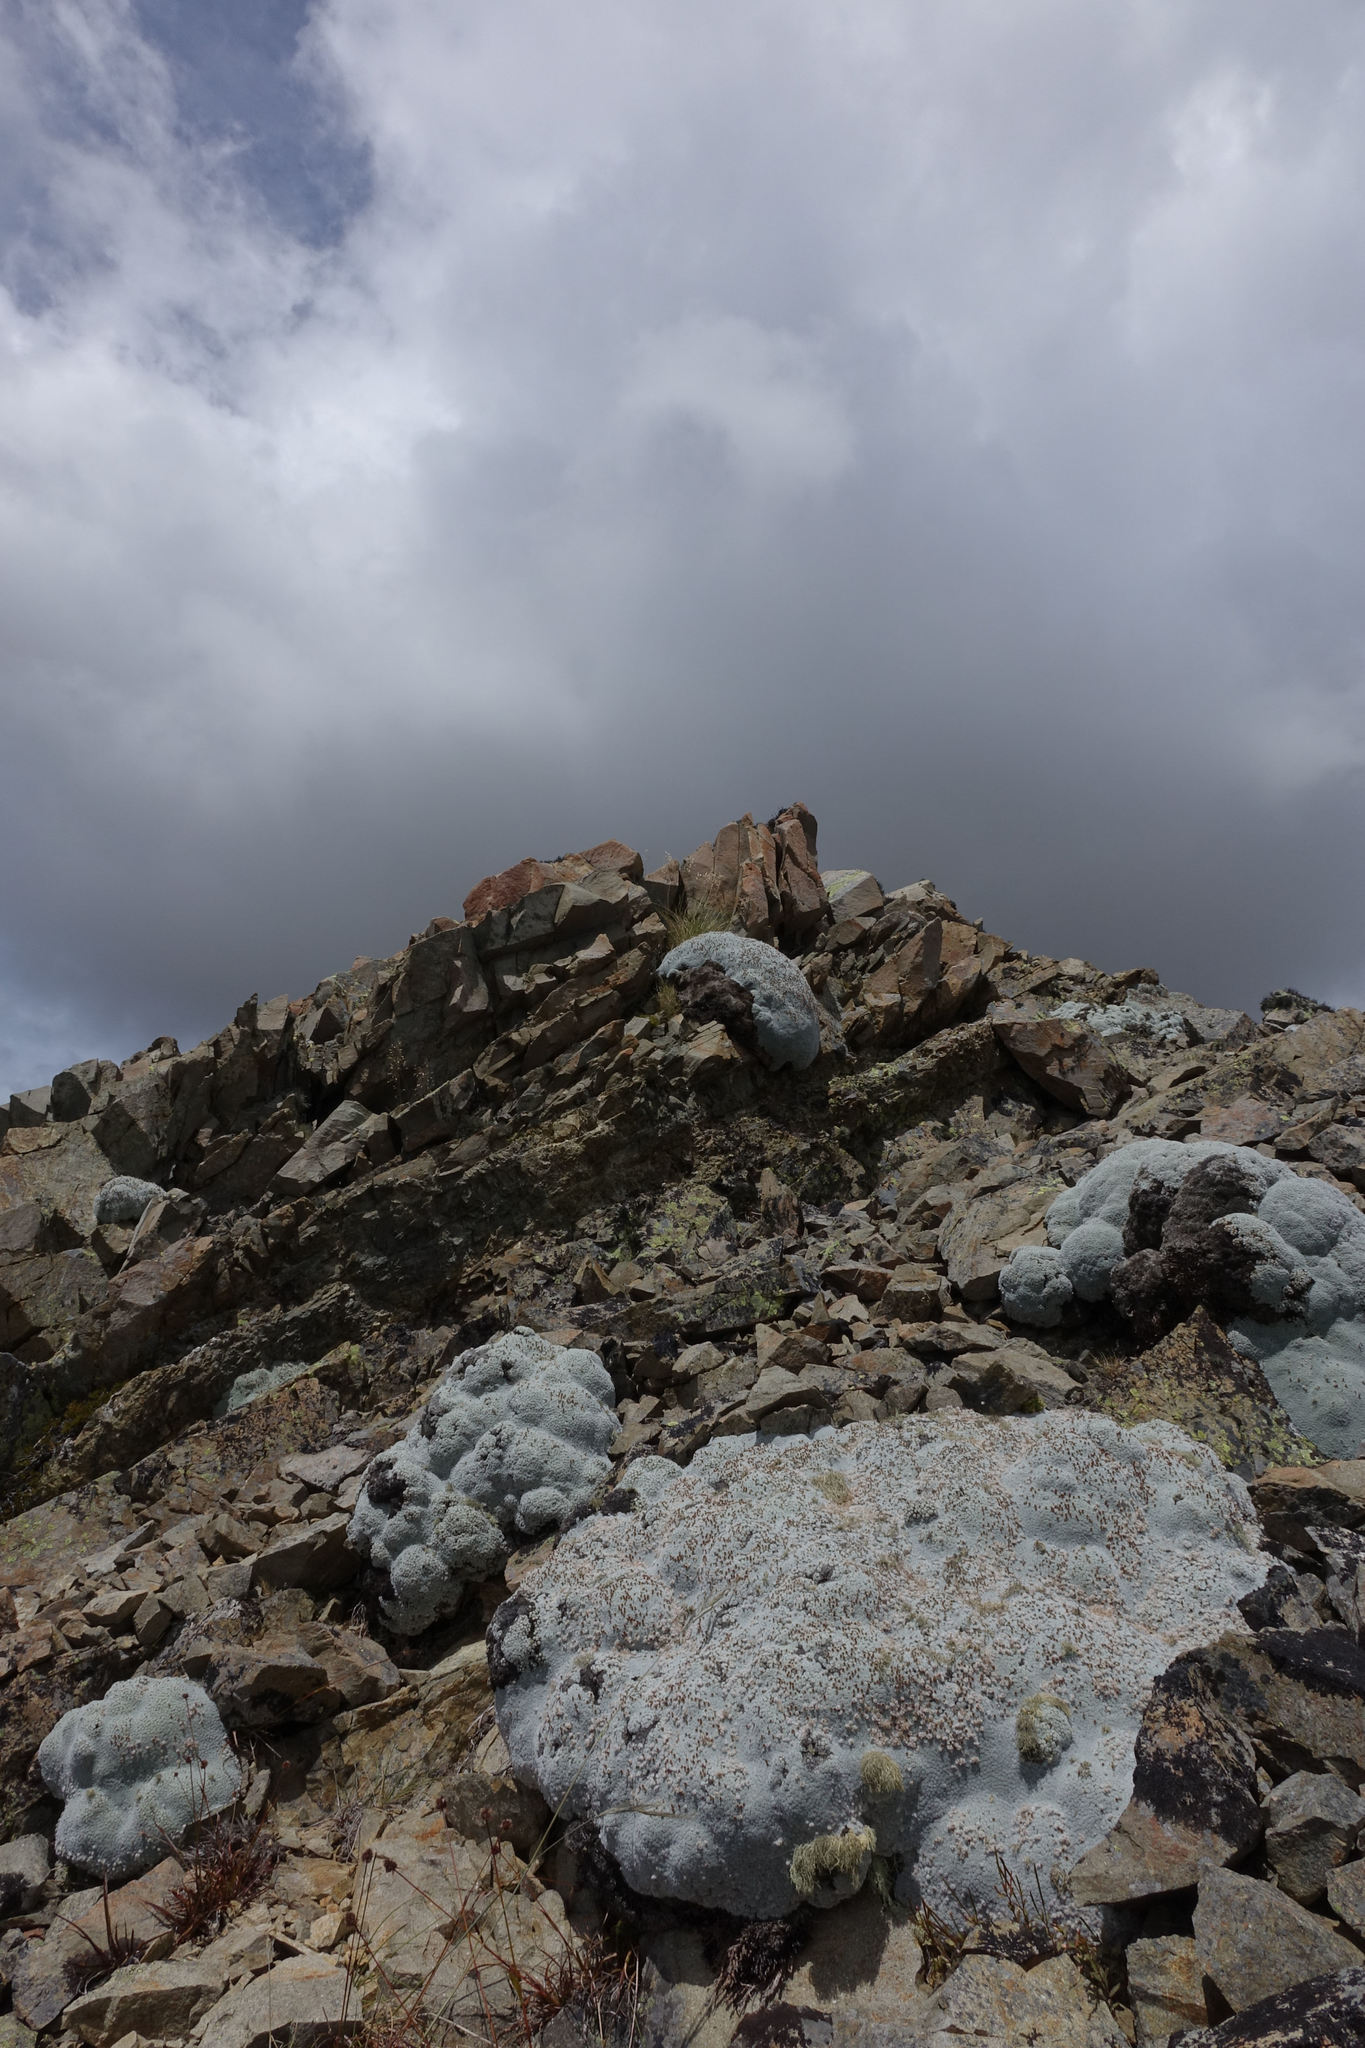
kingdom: Plantae
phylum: Tracheophyta
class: Magnoliopsida
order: Asterales
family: Asteraceae
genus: Raoulia
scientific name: Raoulia eximia
